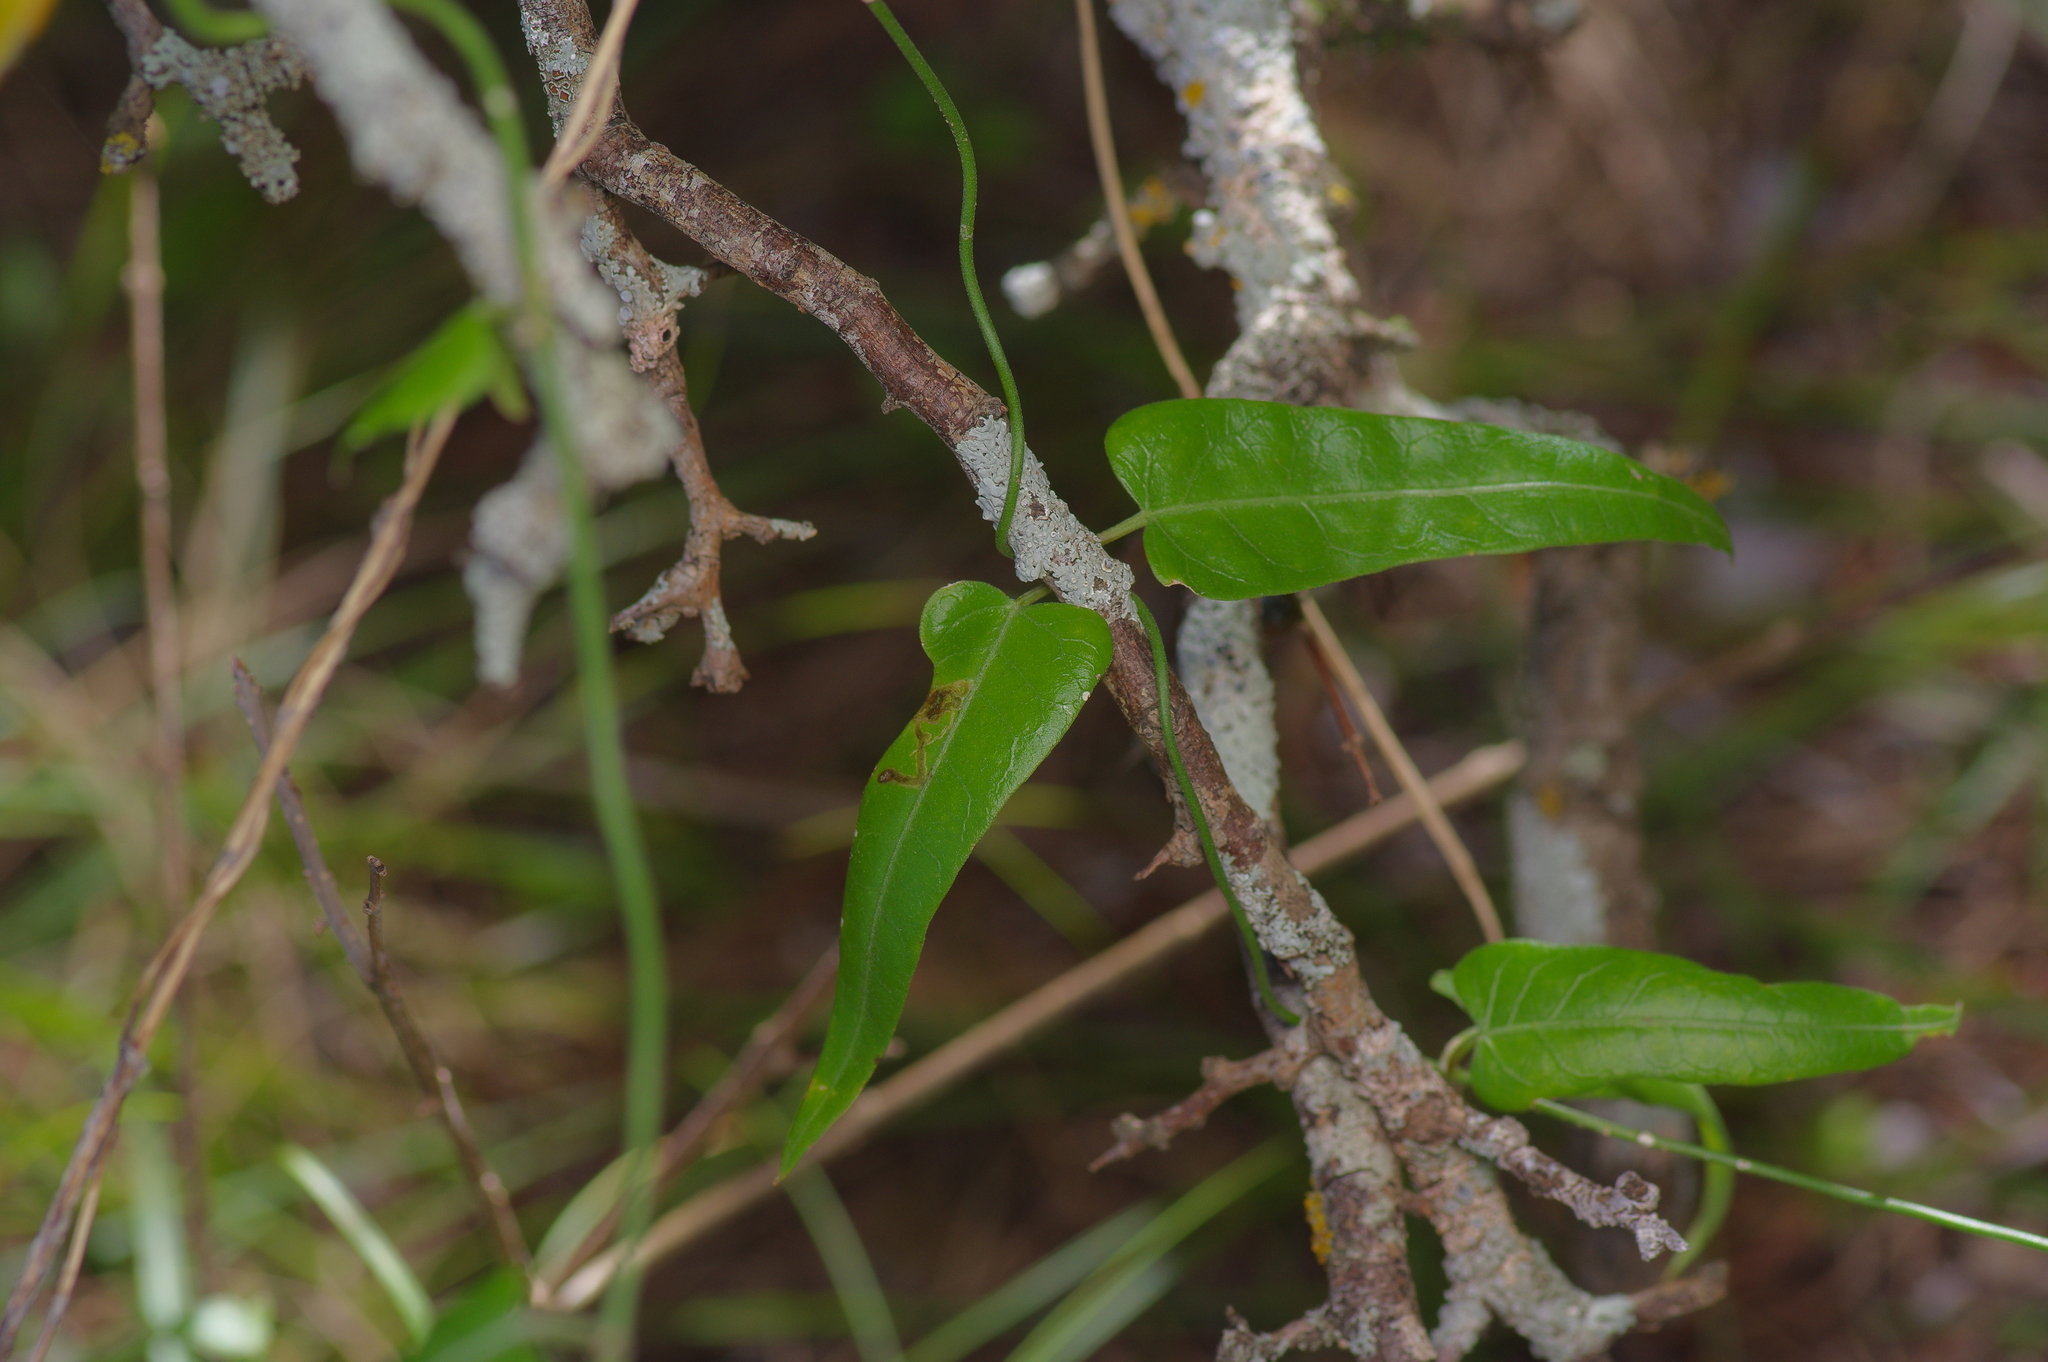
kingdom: Plantae
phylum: Tracheophyta
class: Magnoliopsida
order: Gentianales
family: Apocynaceae
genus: Funastrum
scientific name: Funastrum crispum
